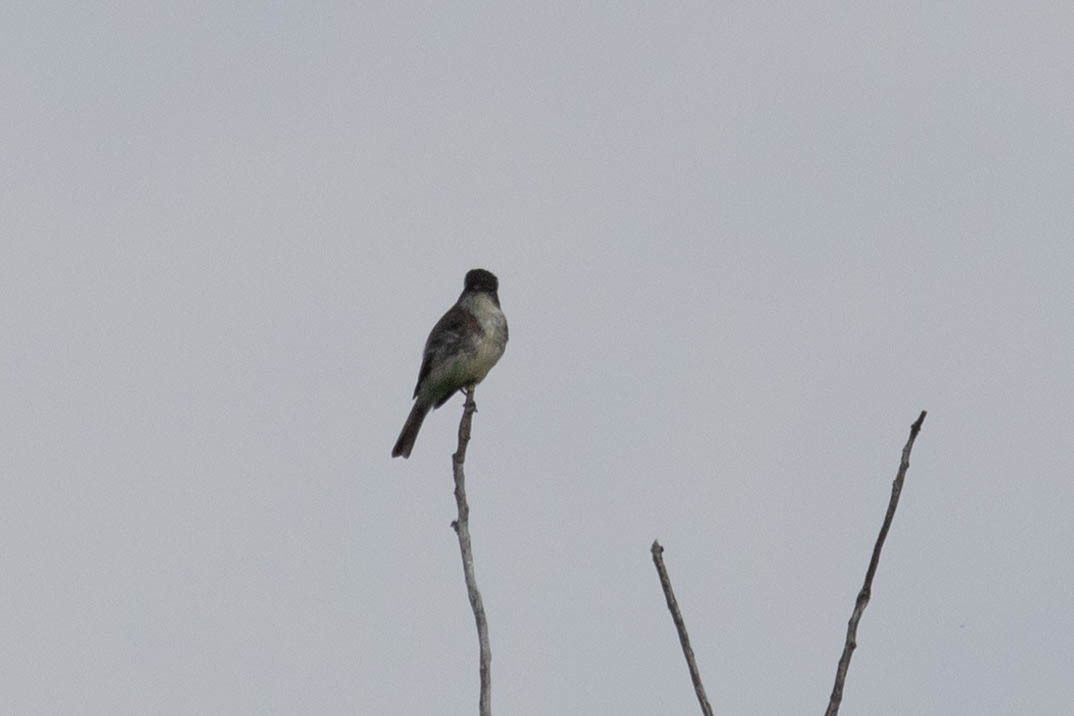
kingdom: Animalia
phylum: Chordata
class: Aves
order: Passeriformes
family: Tyrannidae
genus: Sayornis
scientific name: Sayornis phoebe
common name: Eastern phoebe
